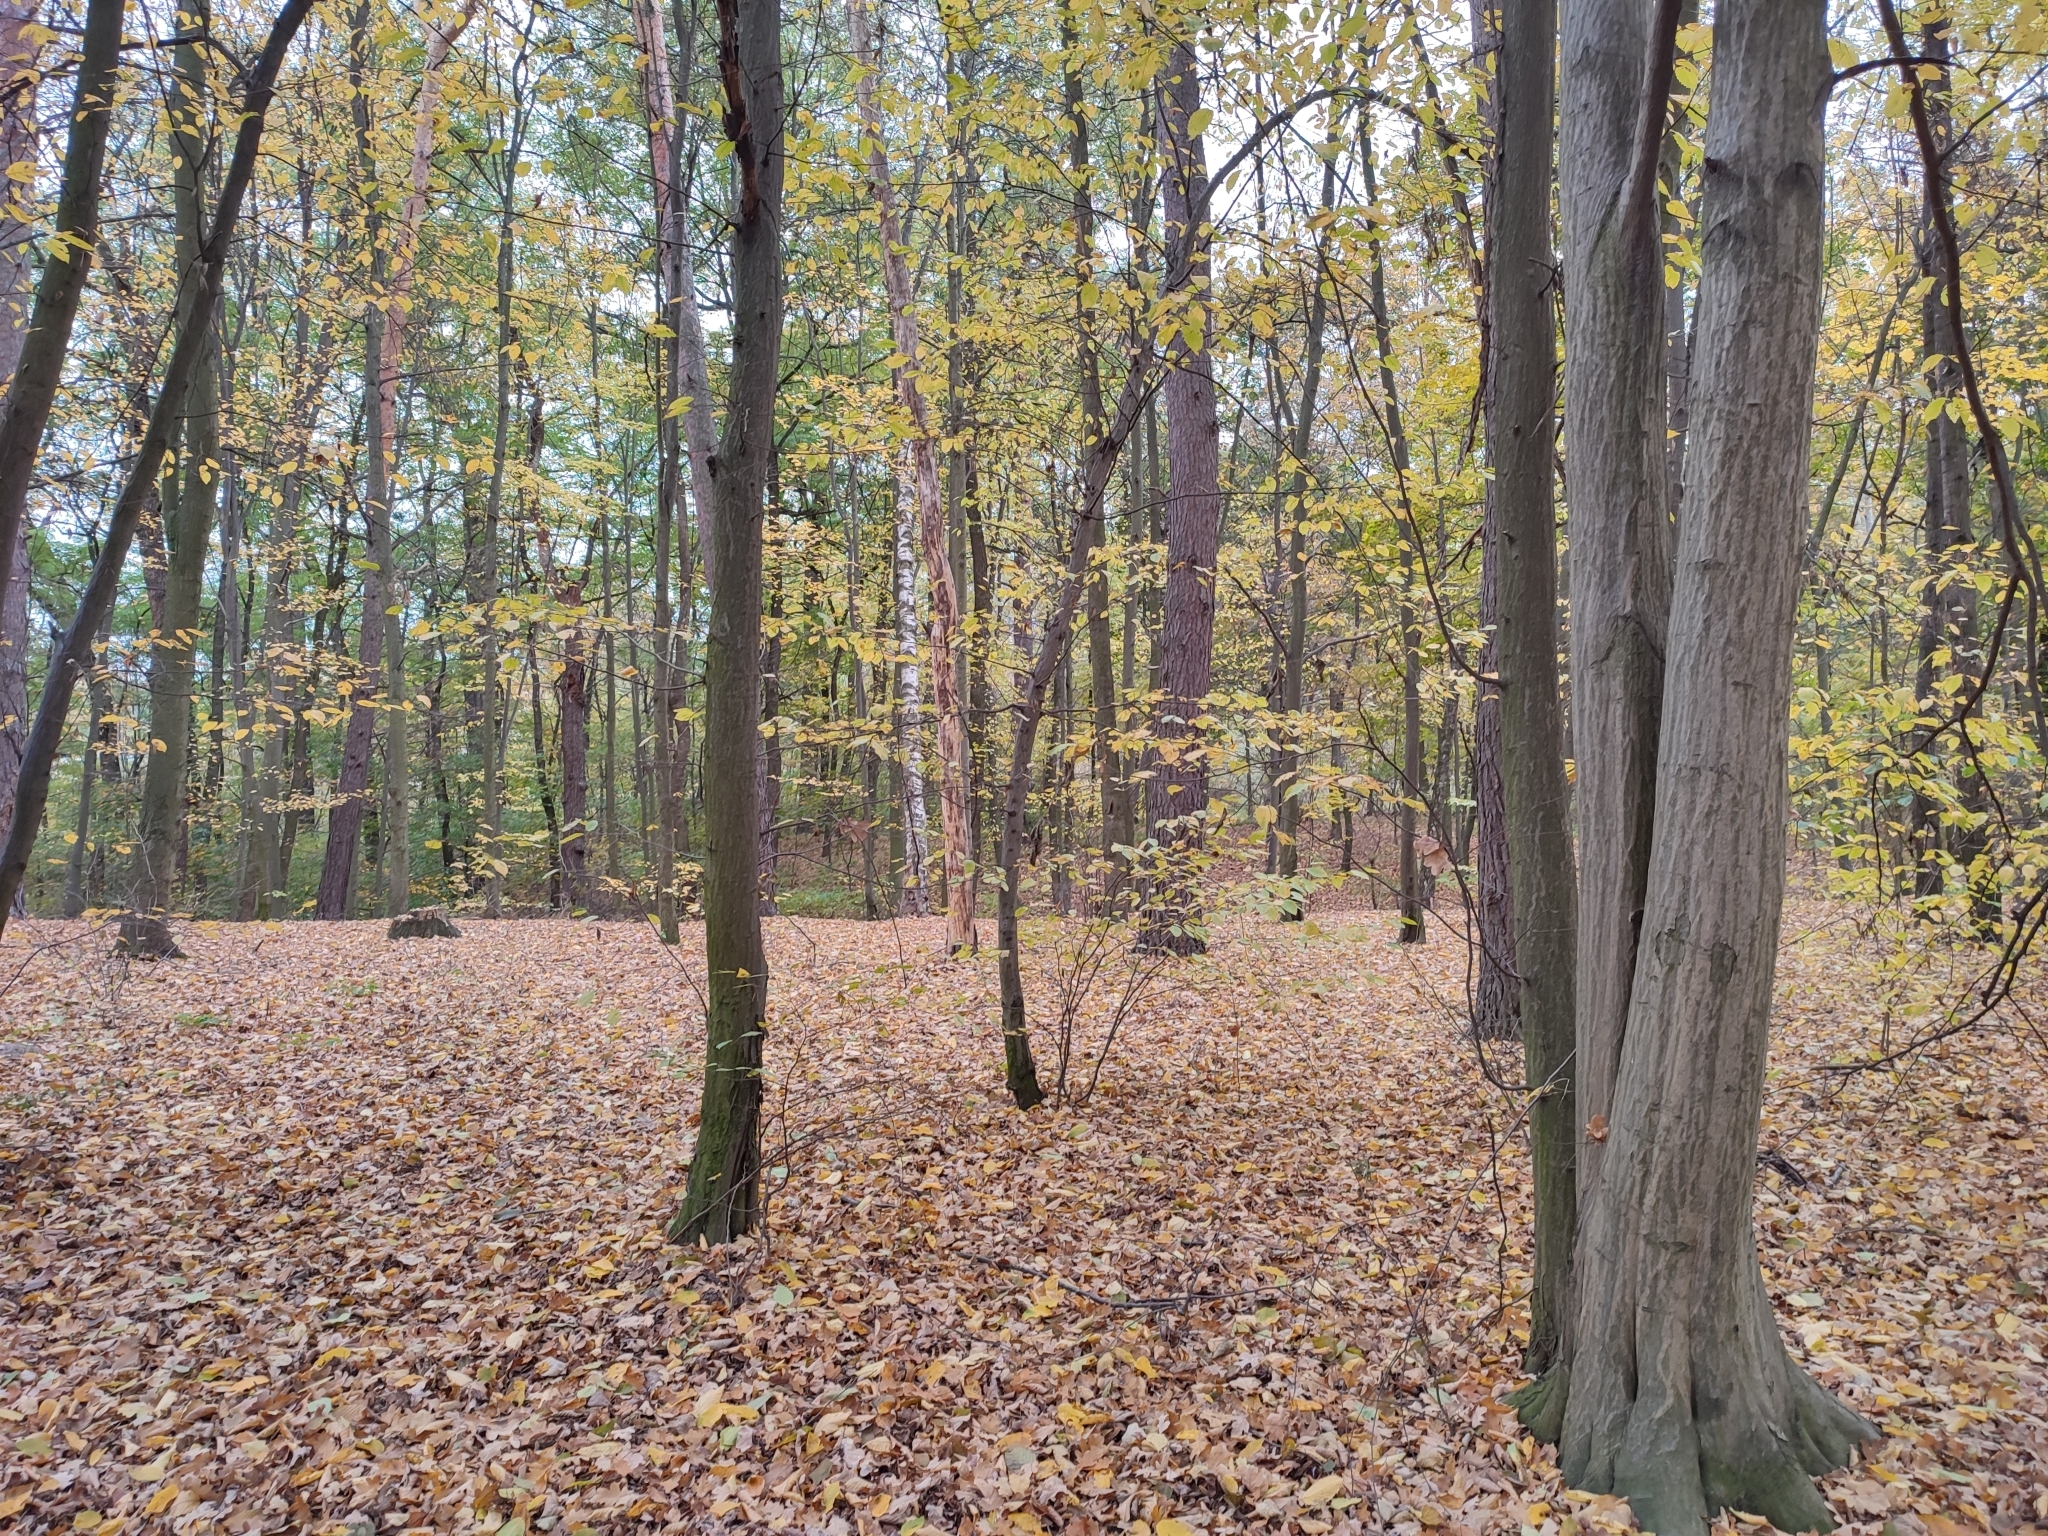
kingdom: Plantae
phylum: Tracheophyta
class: Magnoliopsida
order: Fagales
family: Betulaceae
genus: Carpinus
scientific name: Carpinus betulus
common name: Hornbeam
